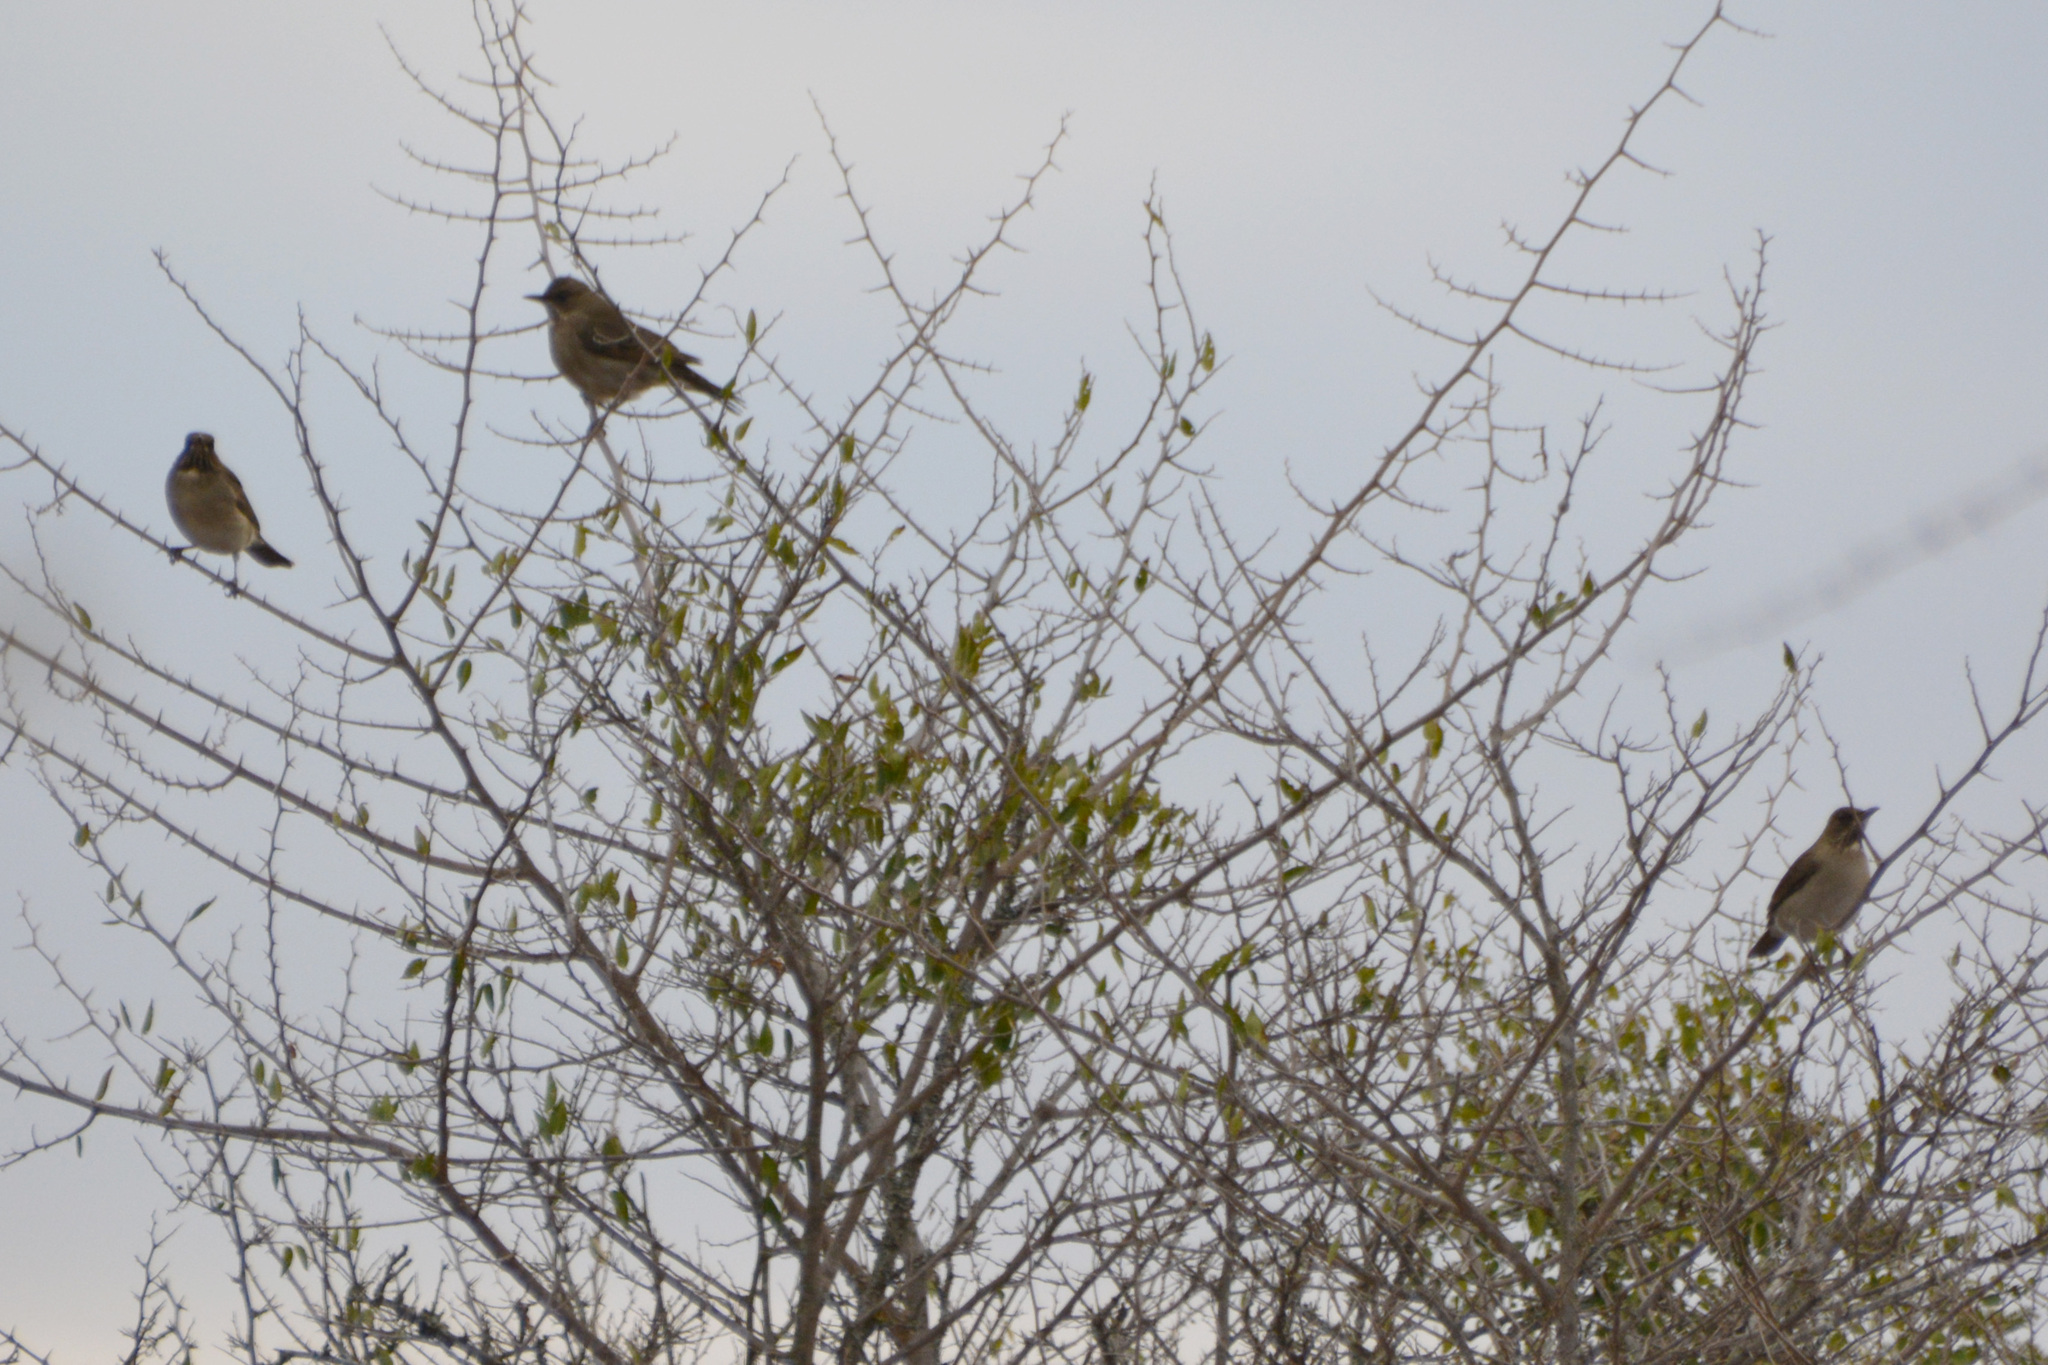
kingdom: Animalia
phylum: Chordata
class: Aves
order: Passeriformes
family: Turdidae
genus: Turdus
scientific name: Turdus amaurochalinus
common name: Creamy-bellied thrush
